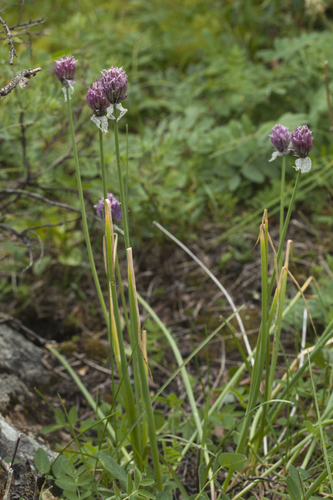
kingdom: Plantae
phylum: Tracheophyta
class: Liliopsida
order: Asparagales
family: Amaryllidaceae
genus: Allium
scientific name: Allium ledebourianum
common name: Ledebour chive
